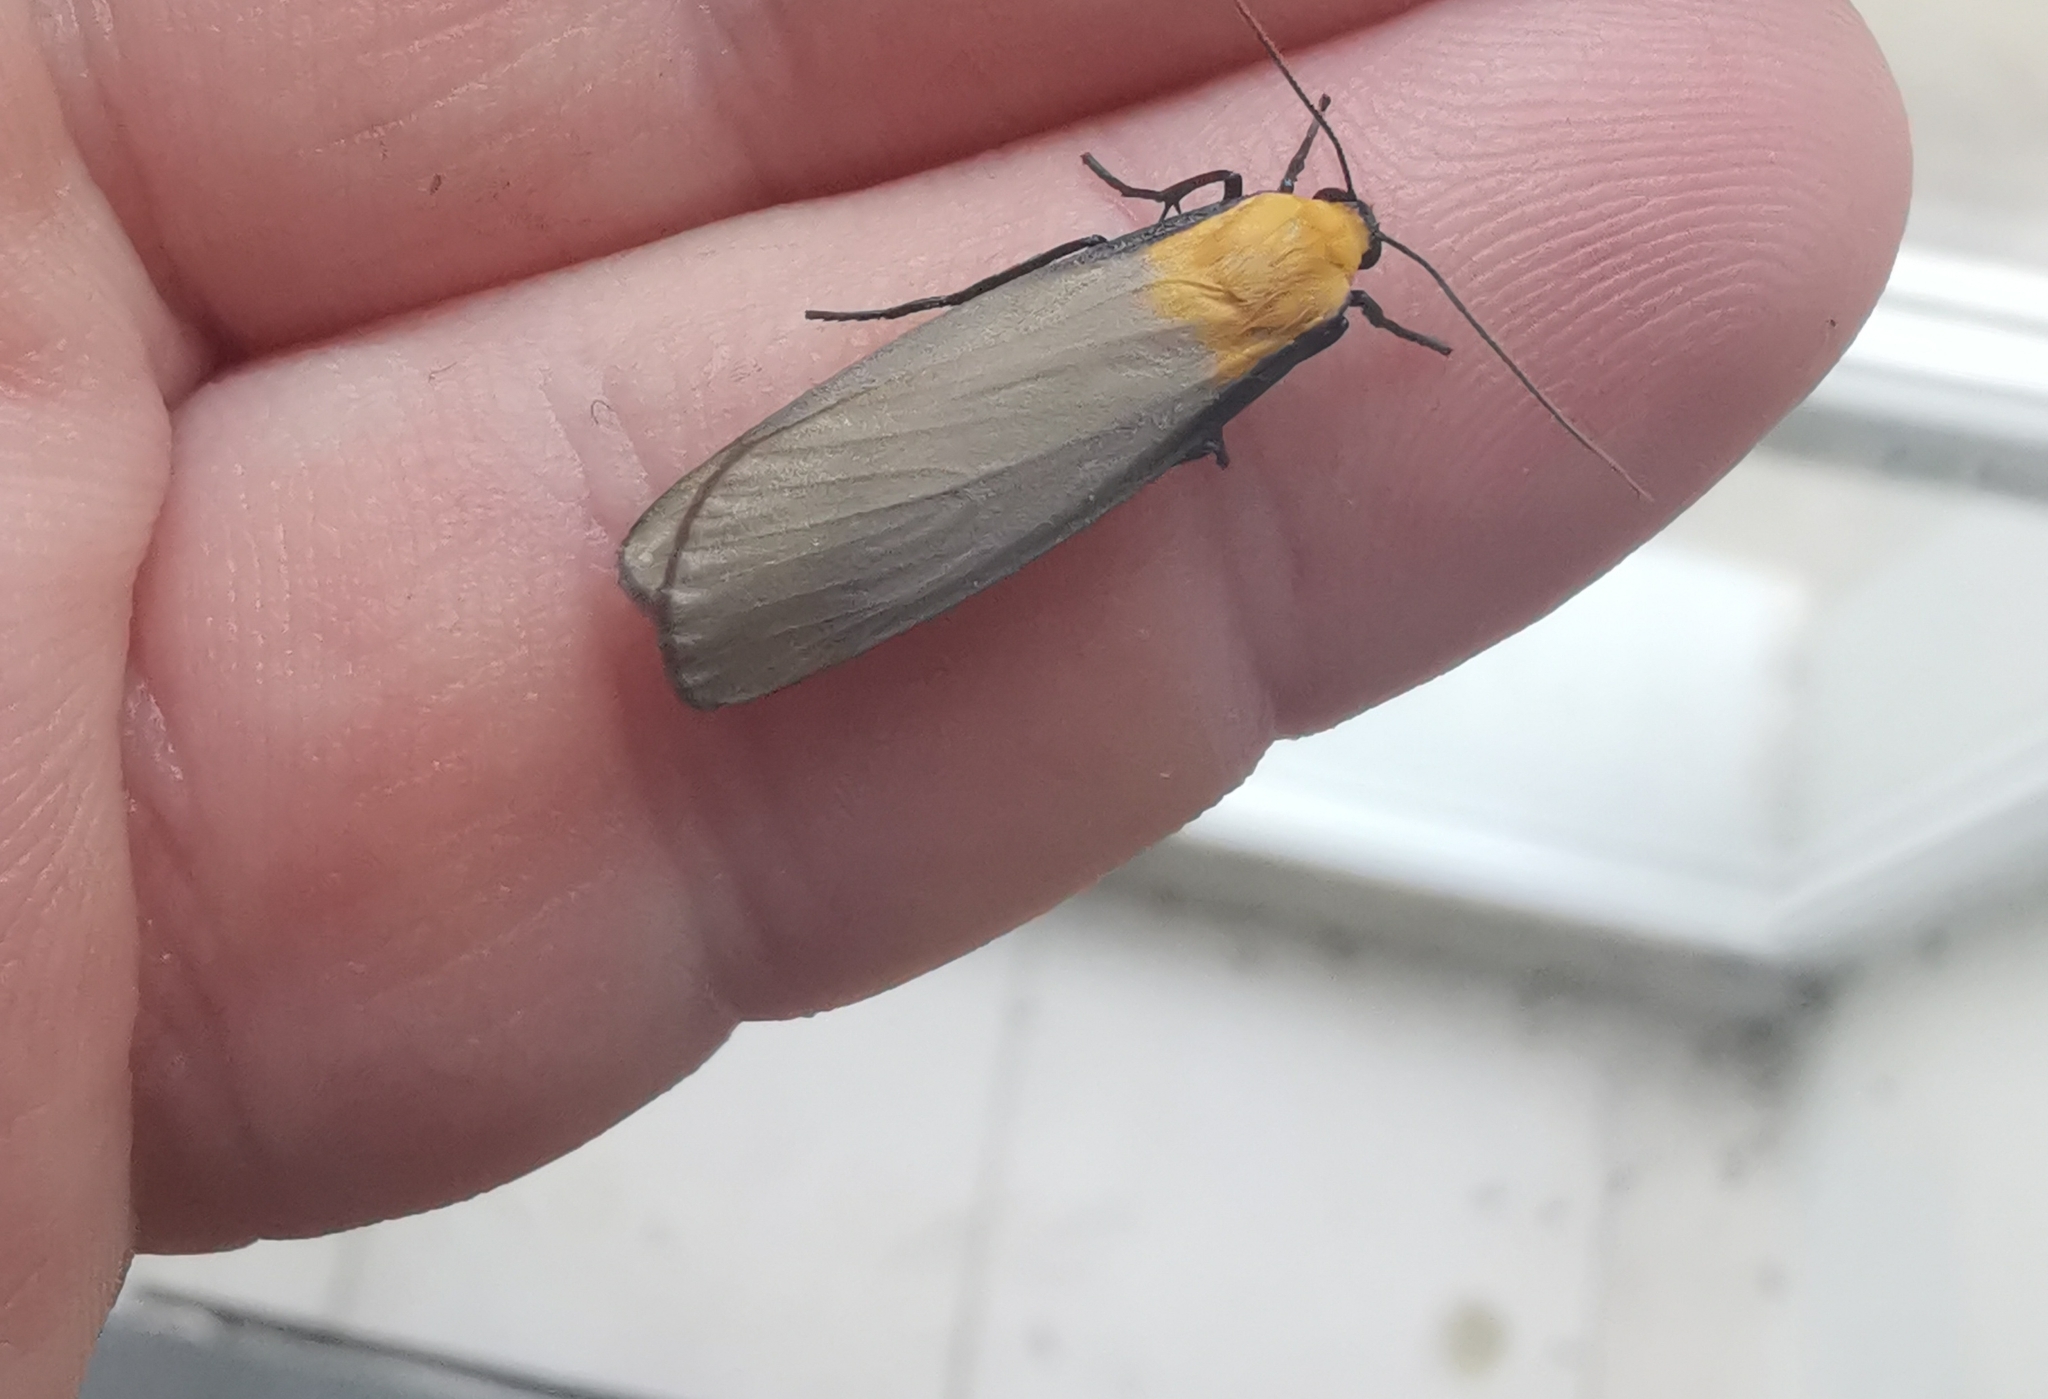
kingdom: Animalia
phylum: Arthropoda
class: Insecta
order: Lepidoptera
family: Erebidae
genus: Lithosia
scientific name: Lithosia quadra
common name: Four-spotted footman
